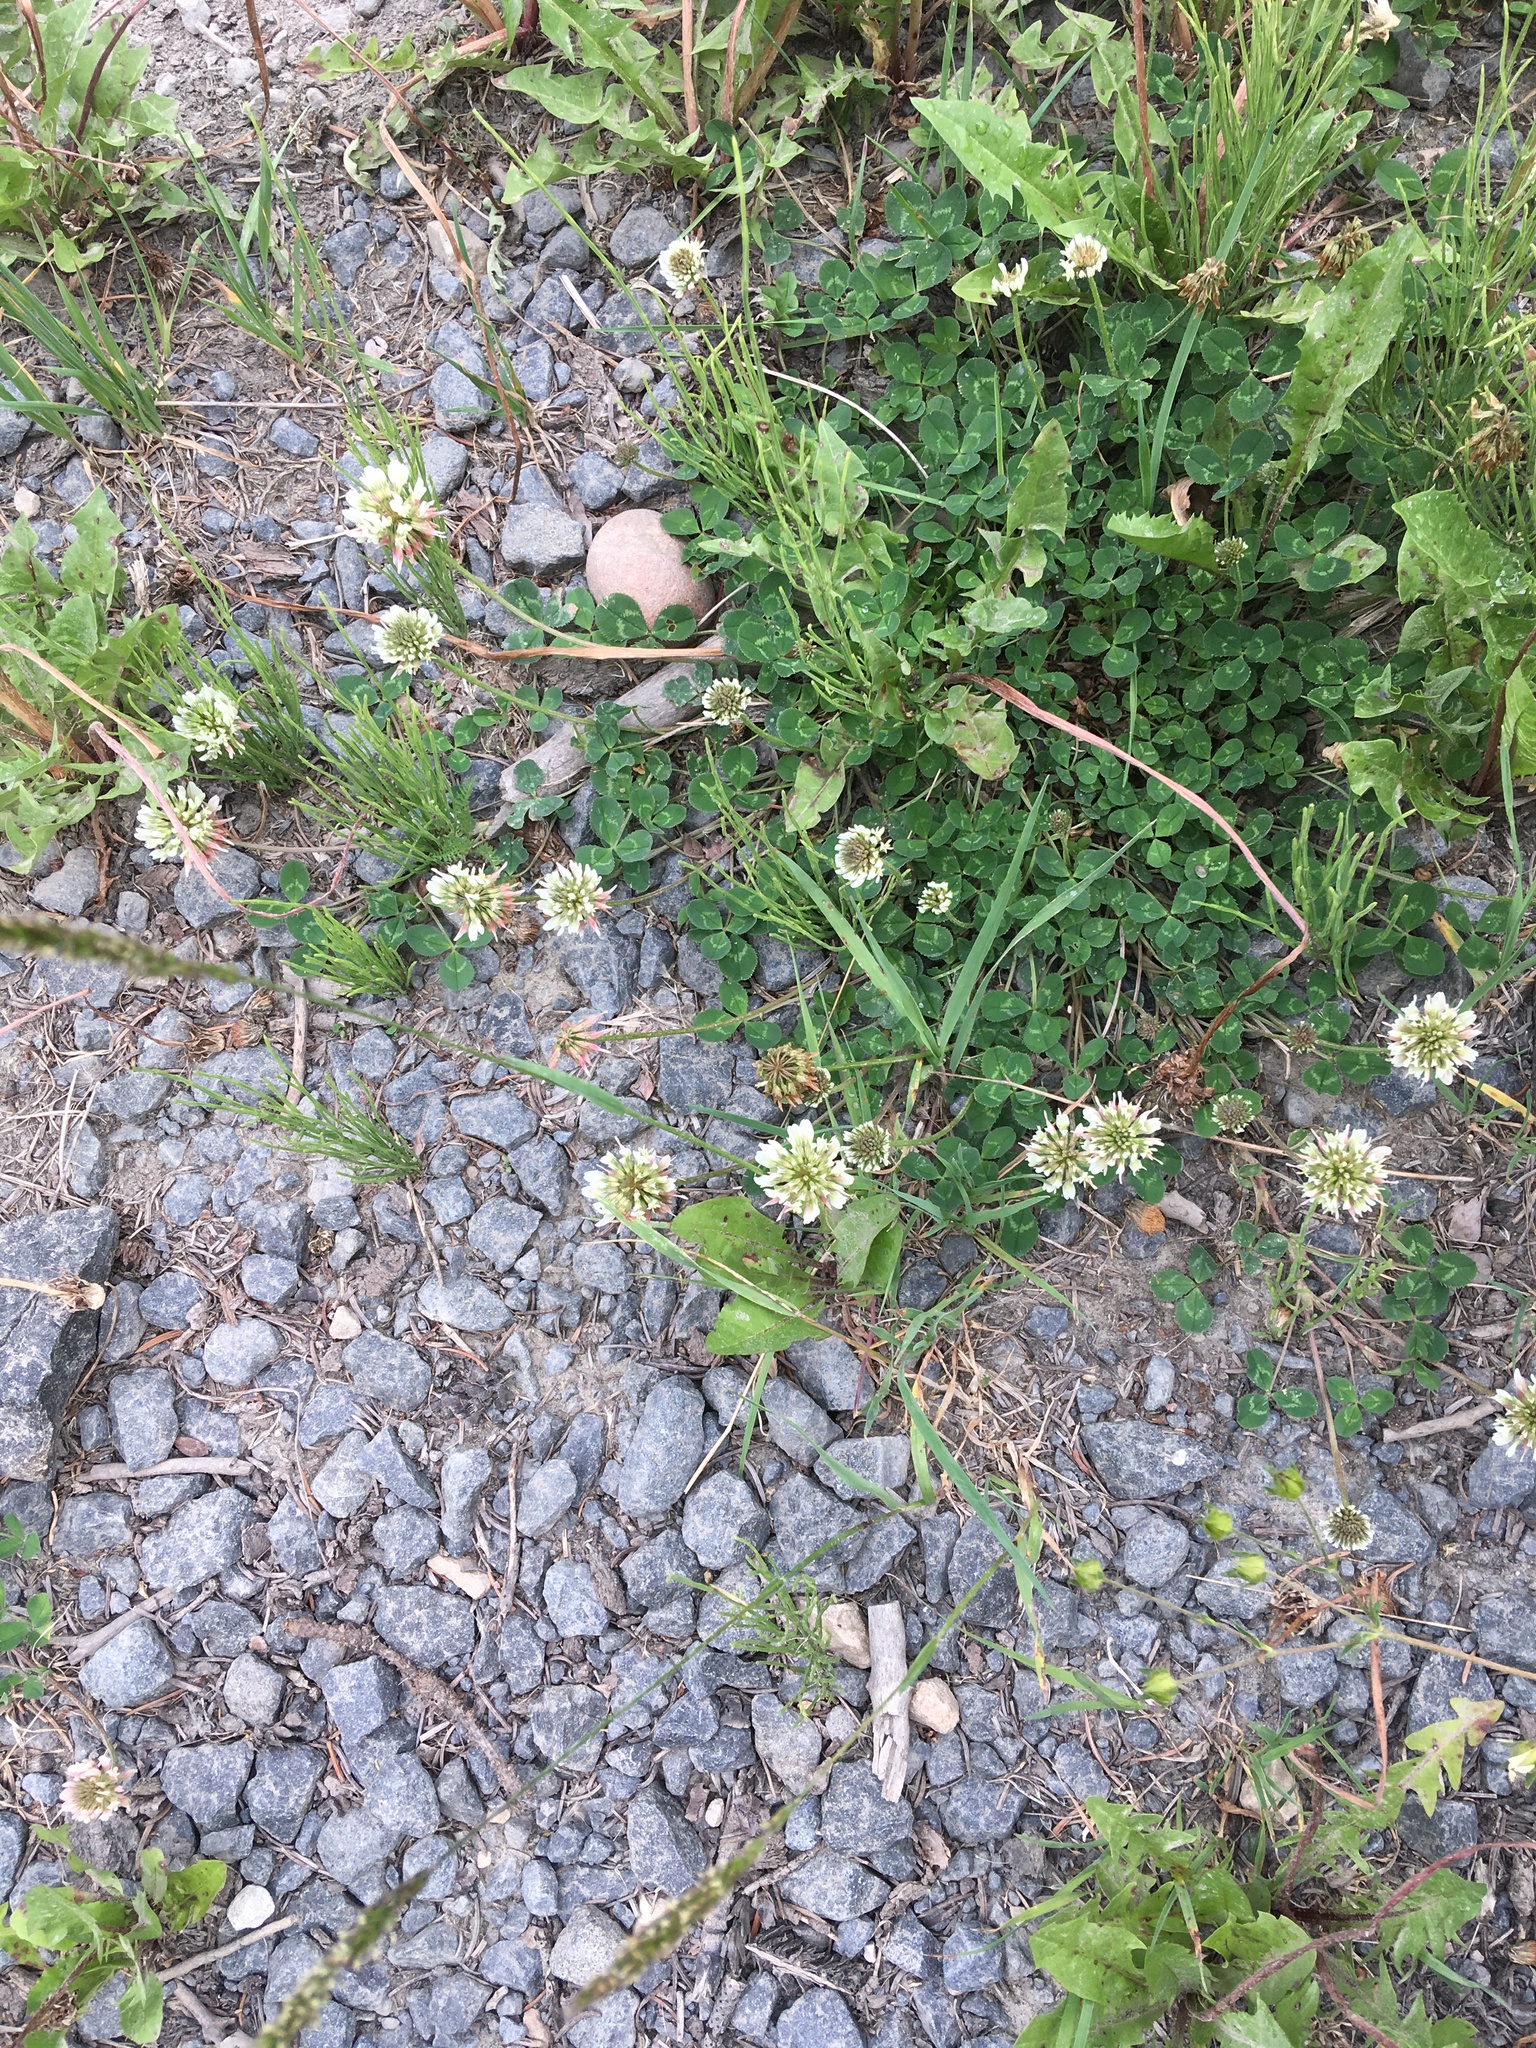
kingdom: Plantae
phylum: Tracheophyta
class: Magnoliopsida
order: Fabales
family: Fabaceae
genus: Trifolium
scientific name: Trifolium repens
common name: White clover
